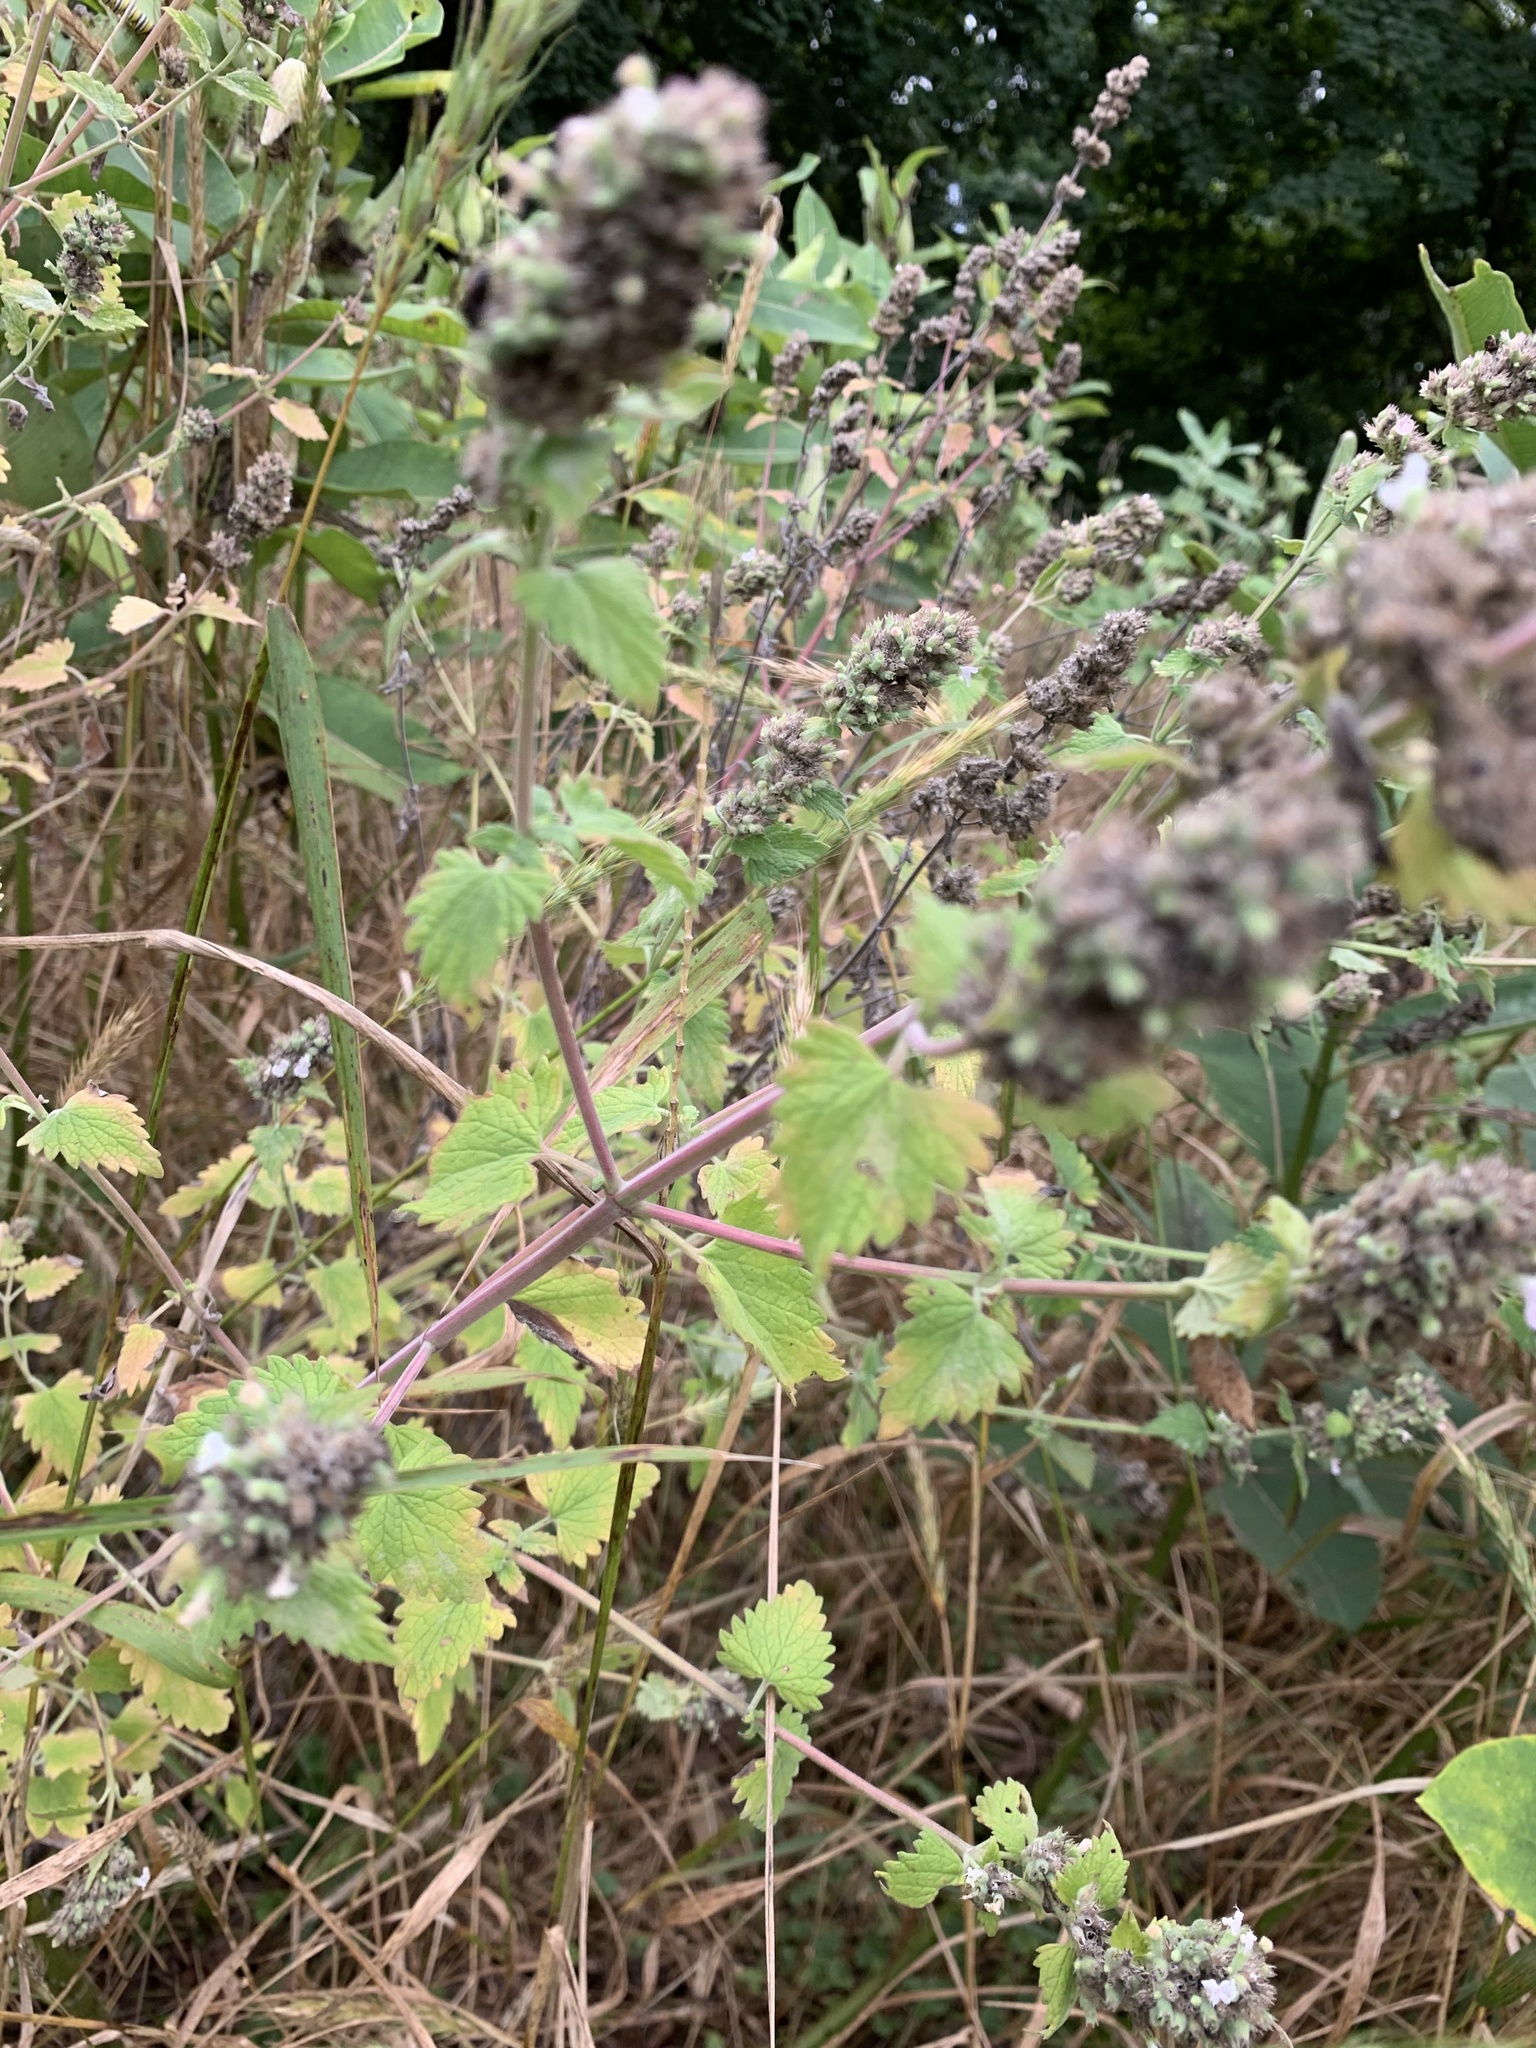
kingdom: Plantae
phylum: Tracheophyta
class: Magnoliopsida
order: Lamiales
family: Lamiaceae
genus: Nepeta
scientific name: Nepeta cataria
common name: Catnip
